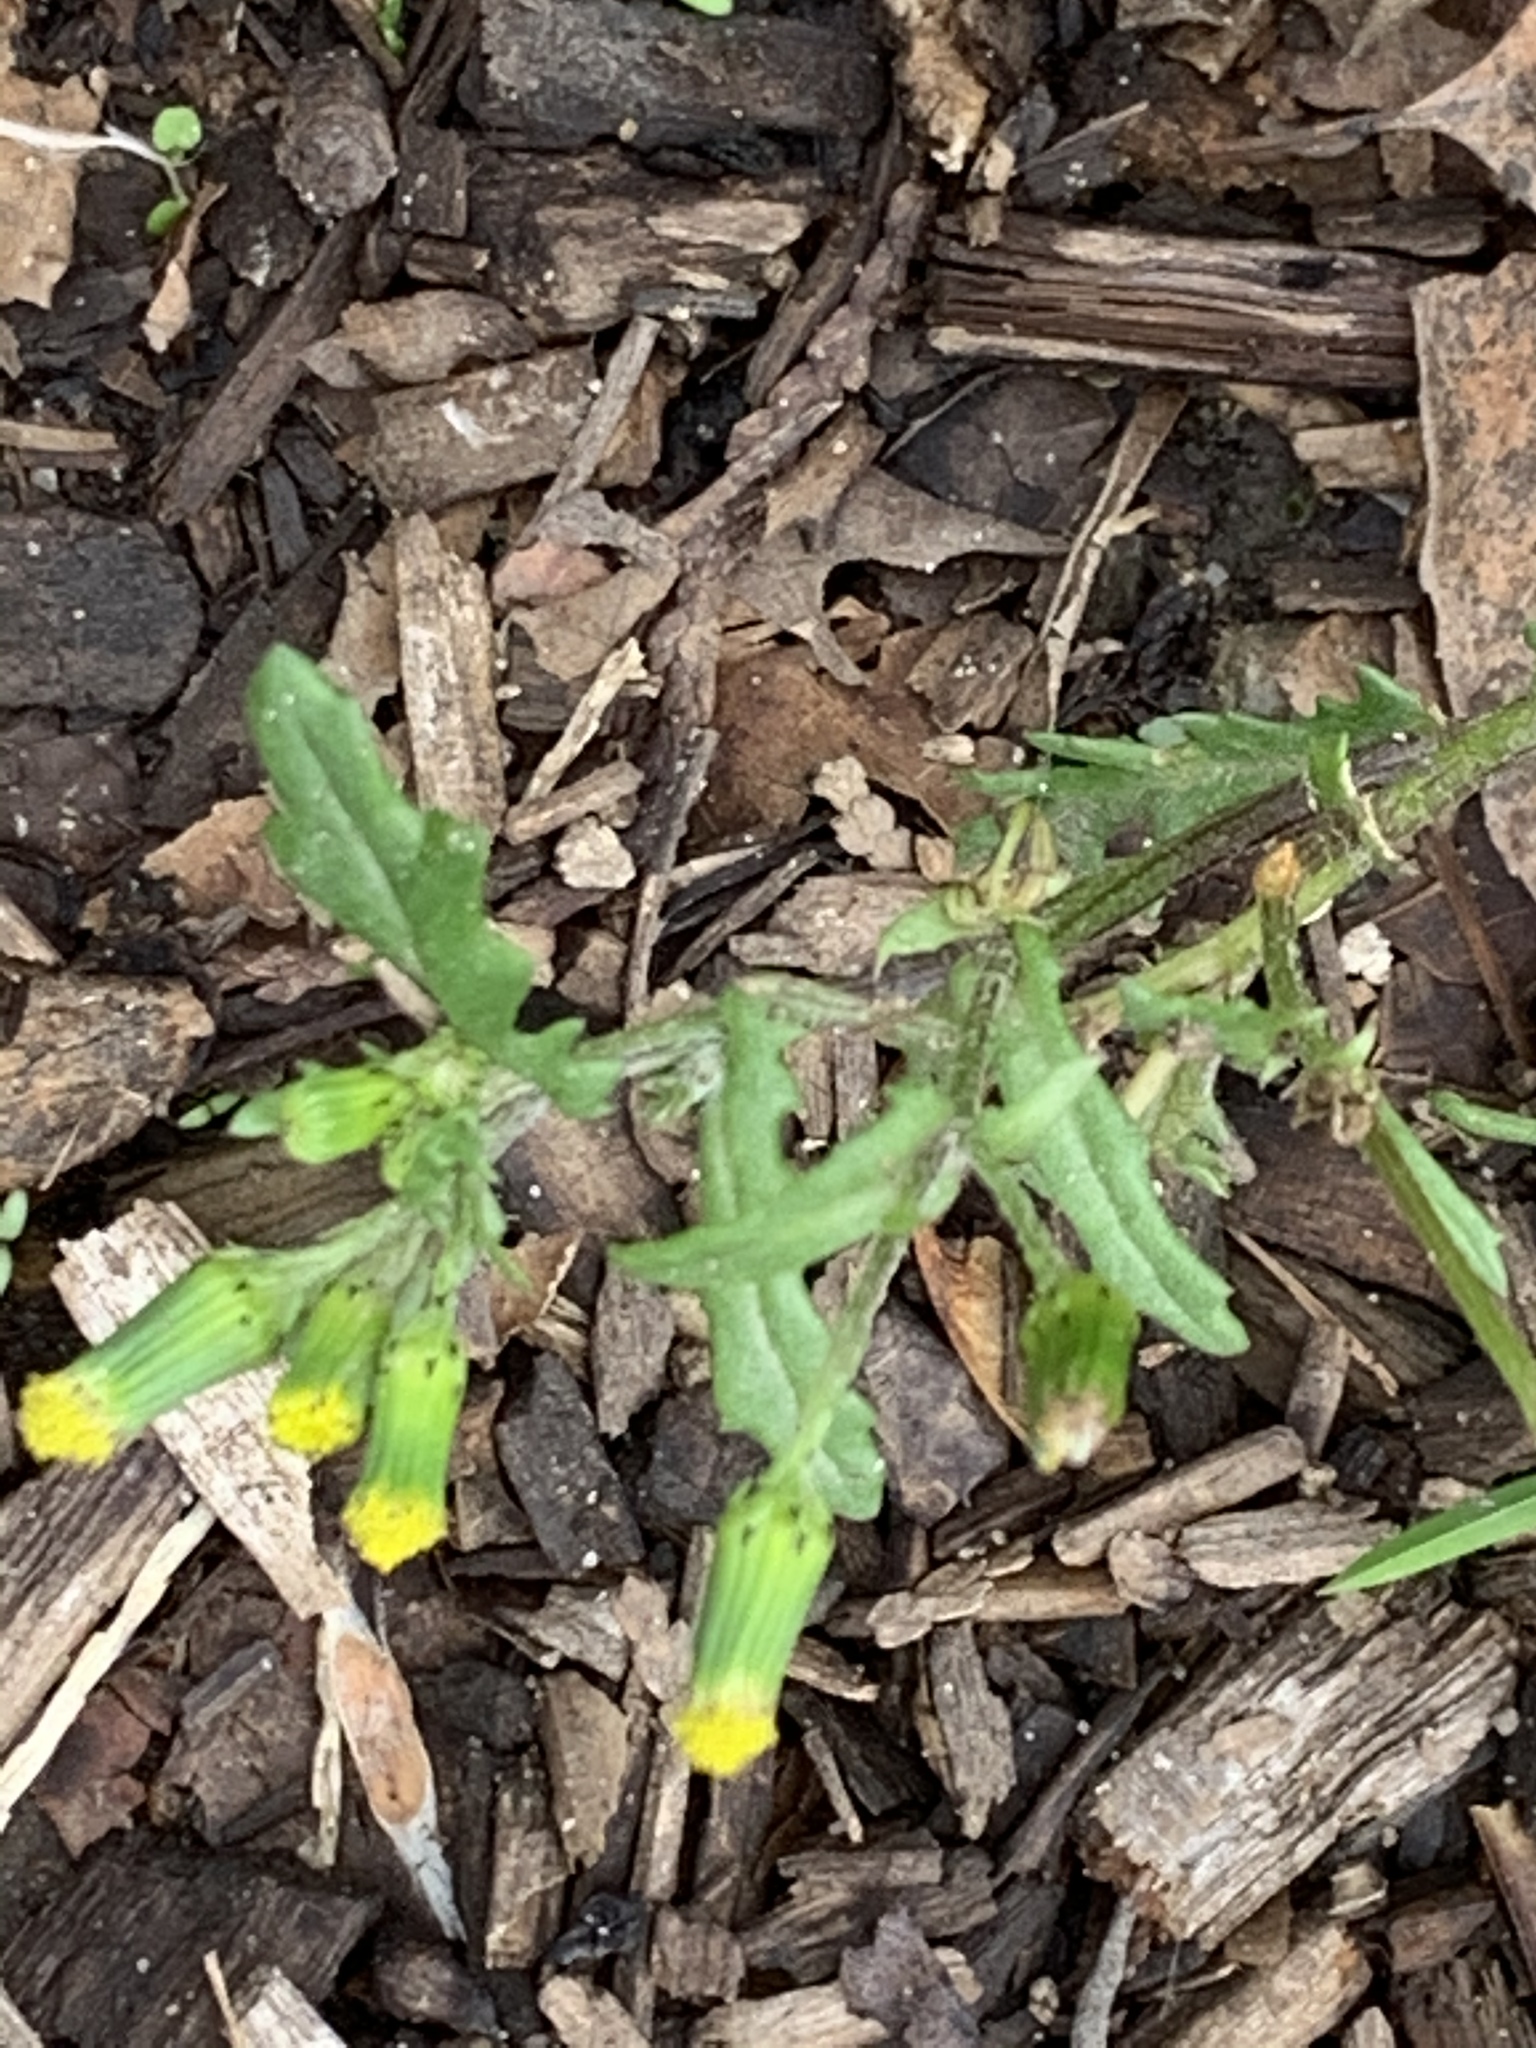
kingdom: Plantae
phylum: Tracheophyta
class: Magnoliopsida
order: Asterales
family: Asteraceae
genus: Senecio
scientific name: Senecio vulgaris
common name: Old-man-in-the-spring
